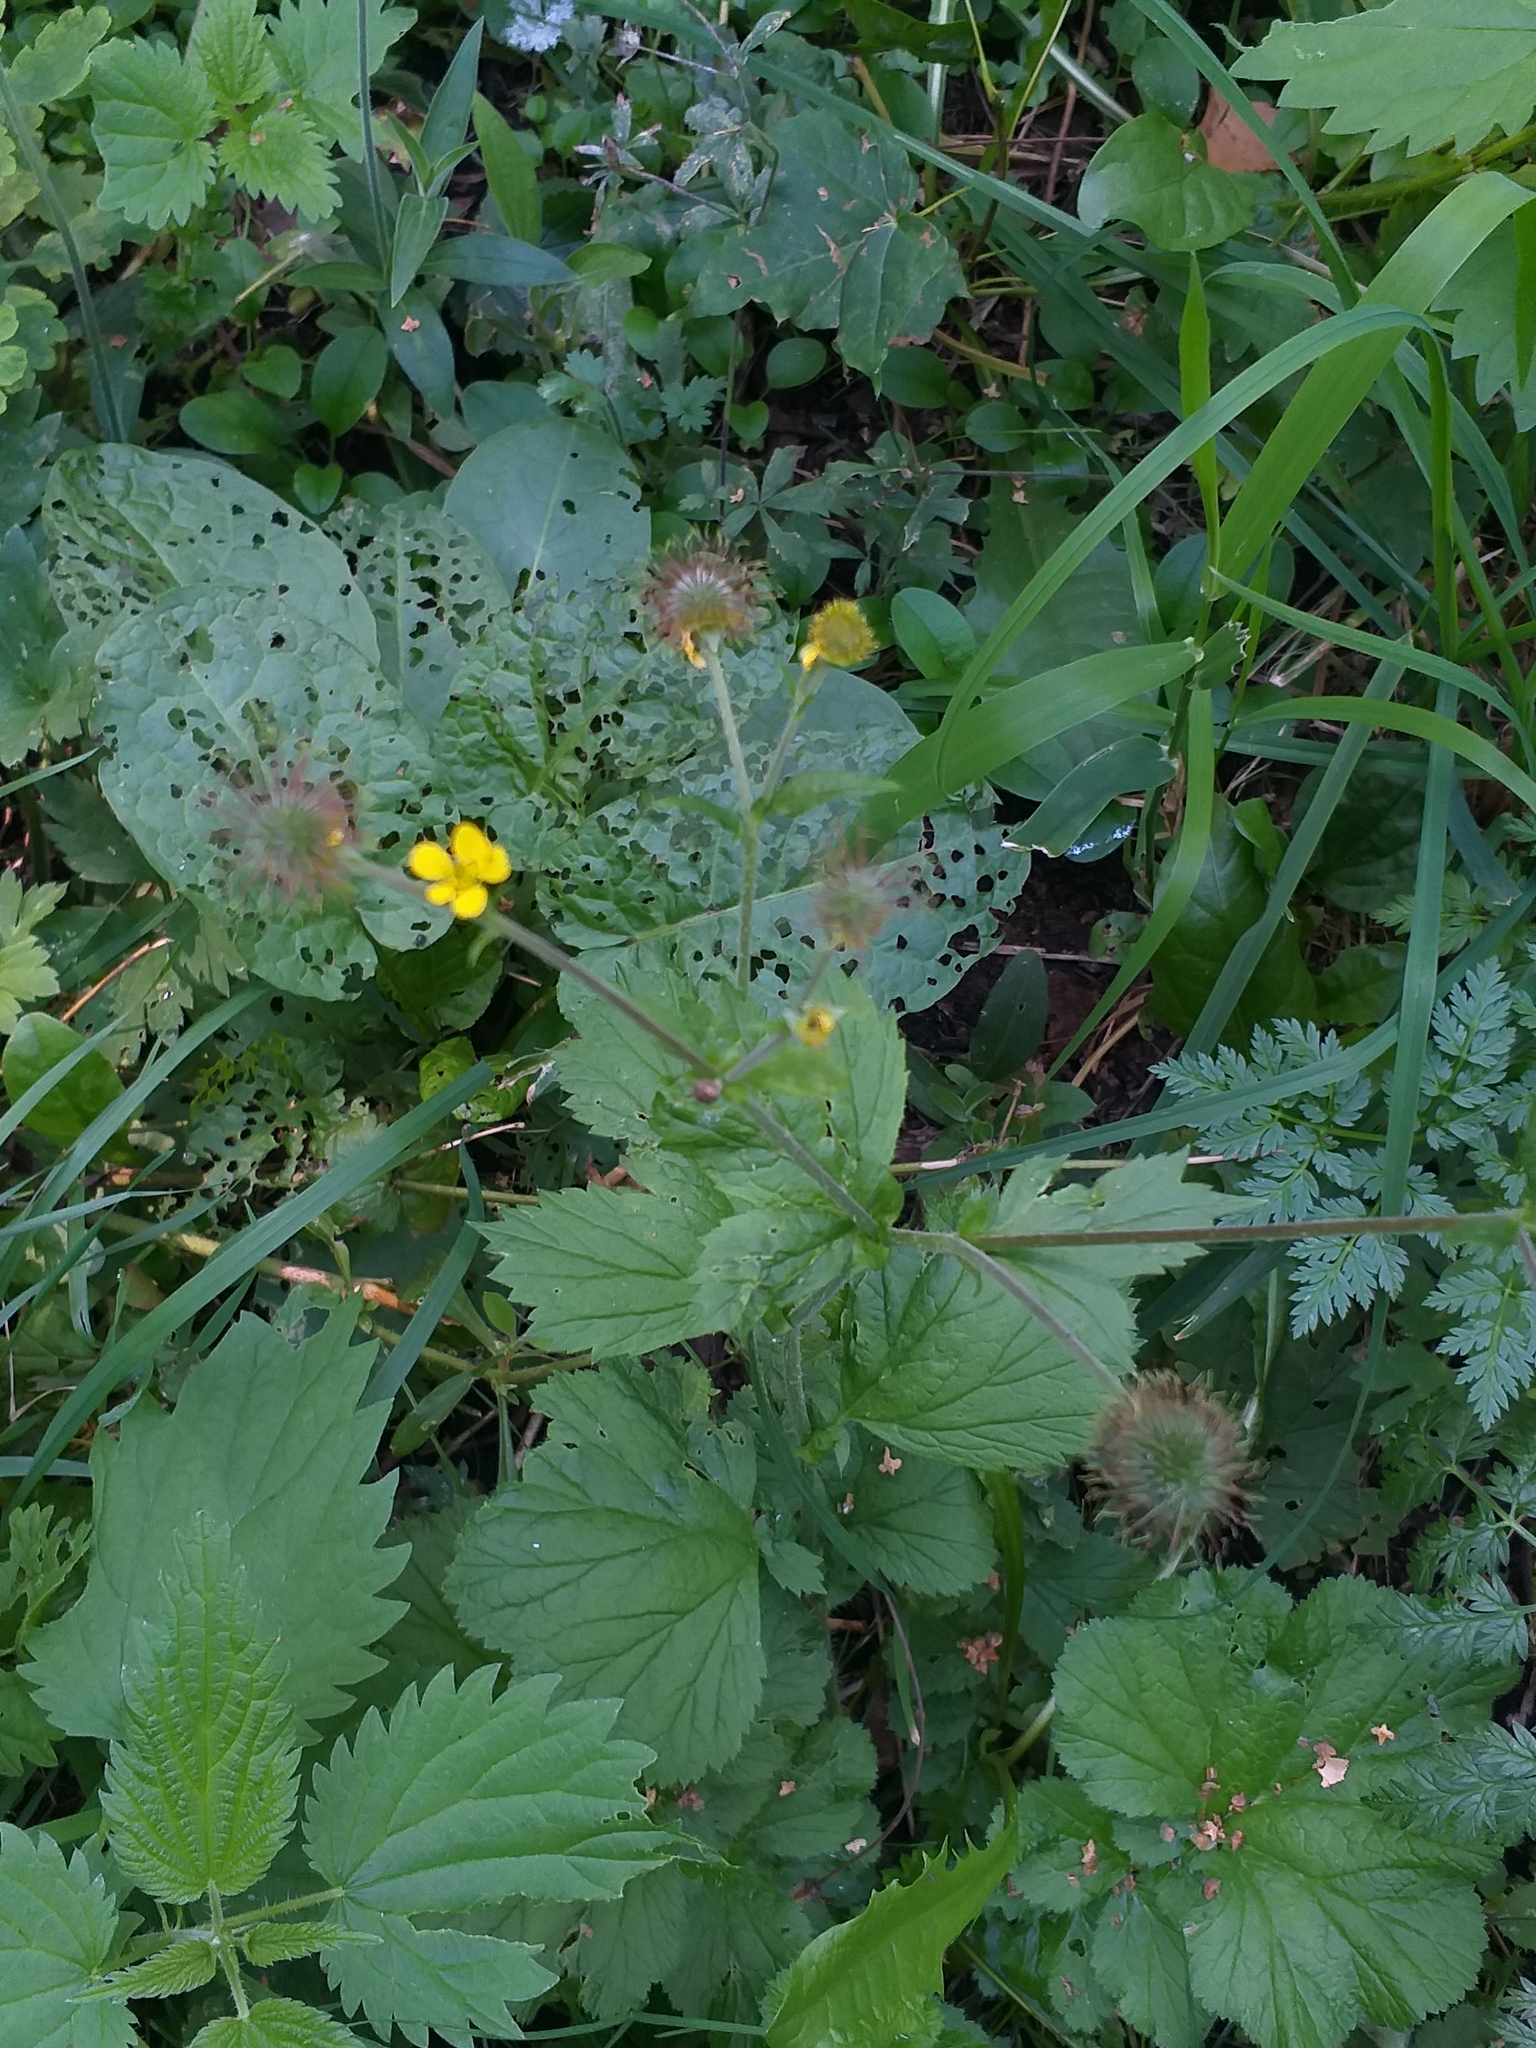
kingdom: Plantae
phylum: Tracheophyta
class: Magnoliopsida
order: Rosales
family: Rosaceae
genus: Geum
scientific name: Geum macrophyllum
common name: Large-leaved avens
